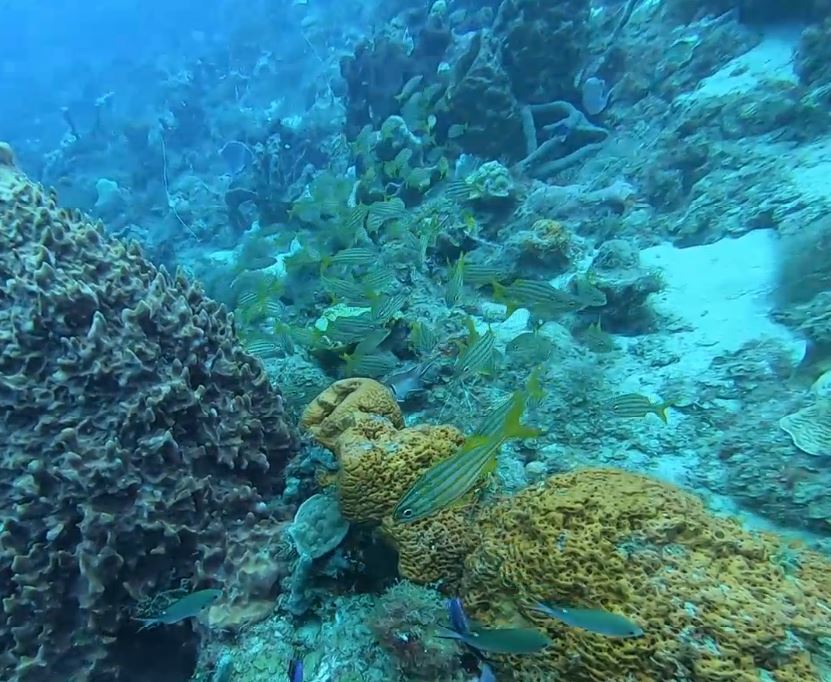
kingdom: Animalia
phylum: Chordata
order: Perciformes
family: Haemulidae
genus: Haemulon
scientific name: Haemulon chrysargyreum
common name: Smallmouth grunt
